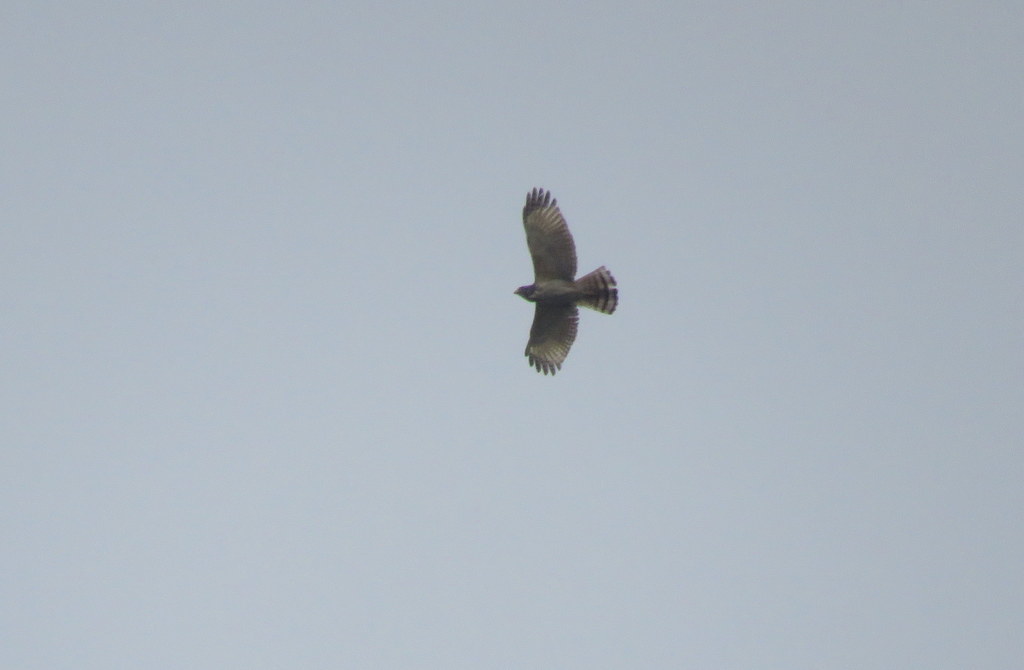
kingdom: Animalia
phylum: Chordata
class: Aves
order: Accipitriformes
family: Accipitridae
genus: Rupornis
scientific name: Rupornis magnirostris
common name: Roadside hawk
